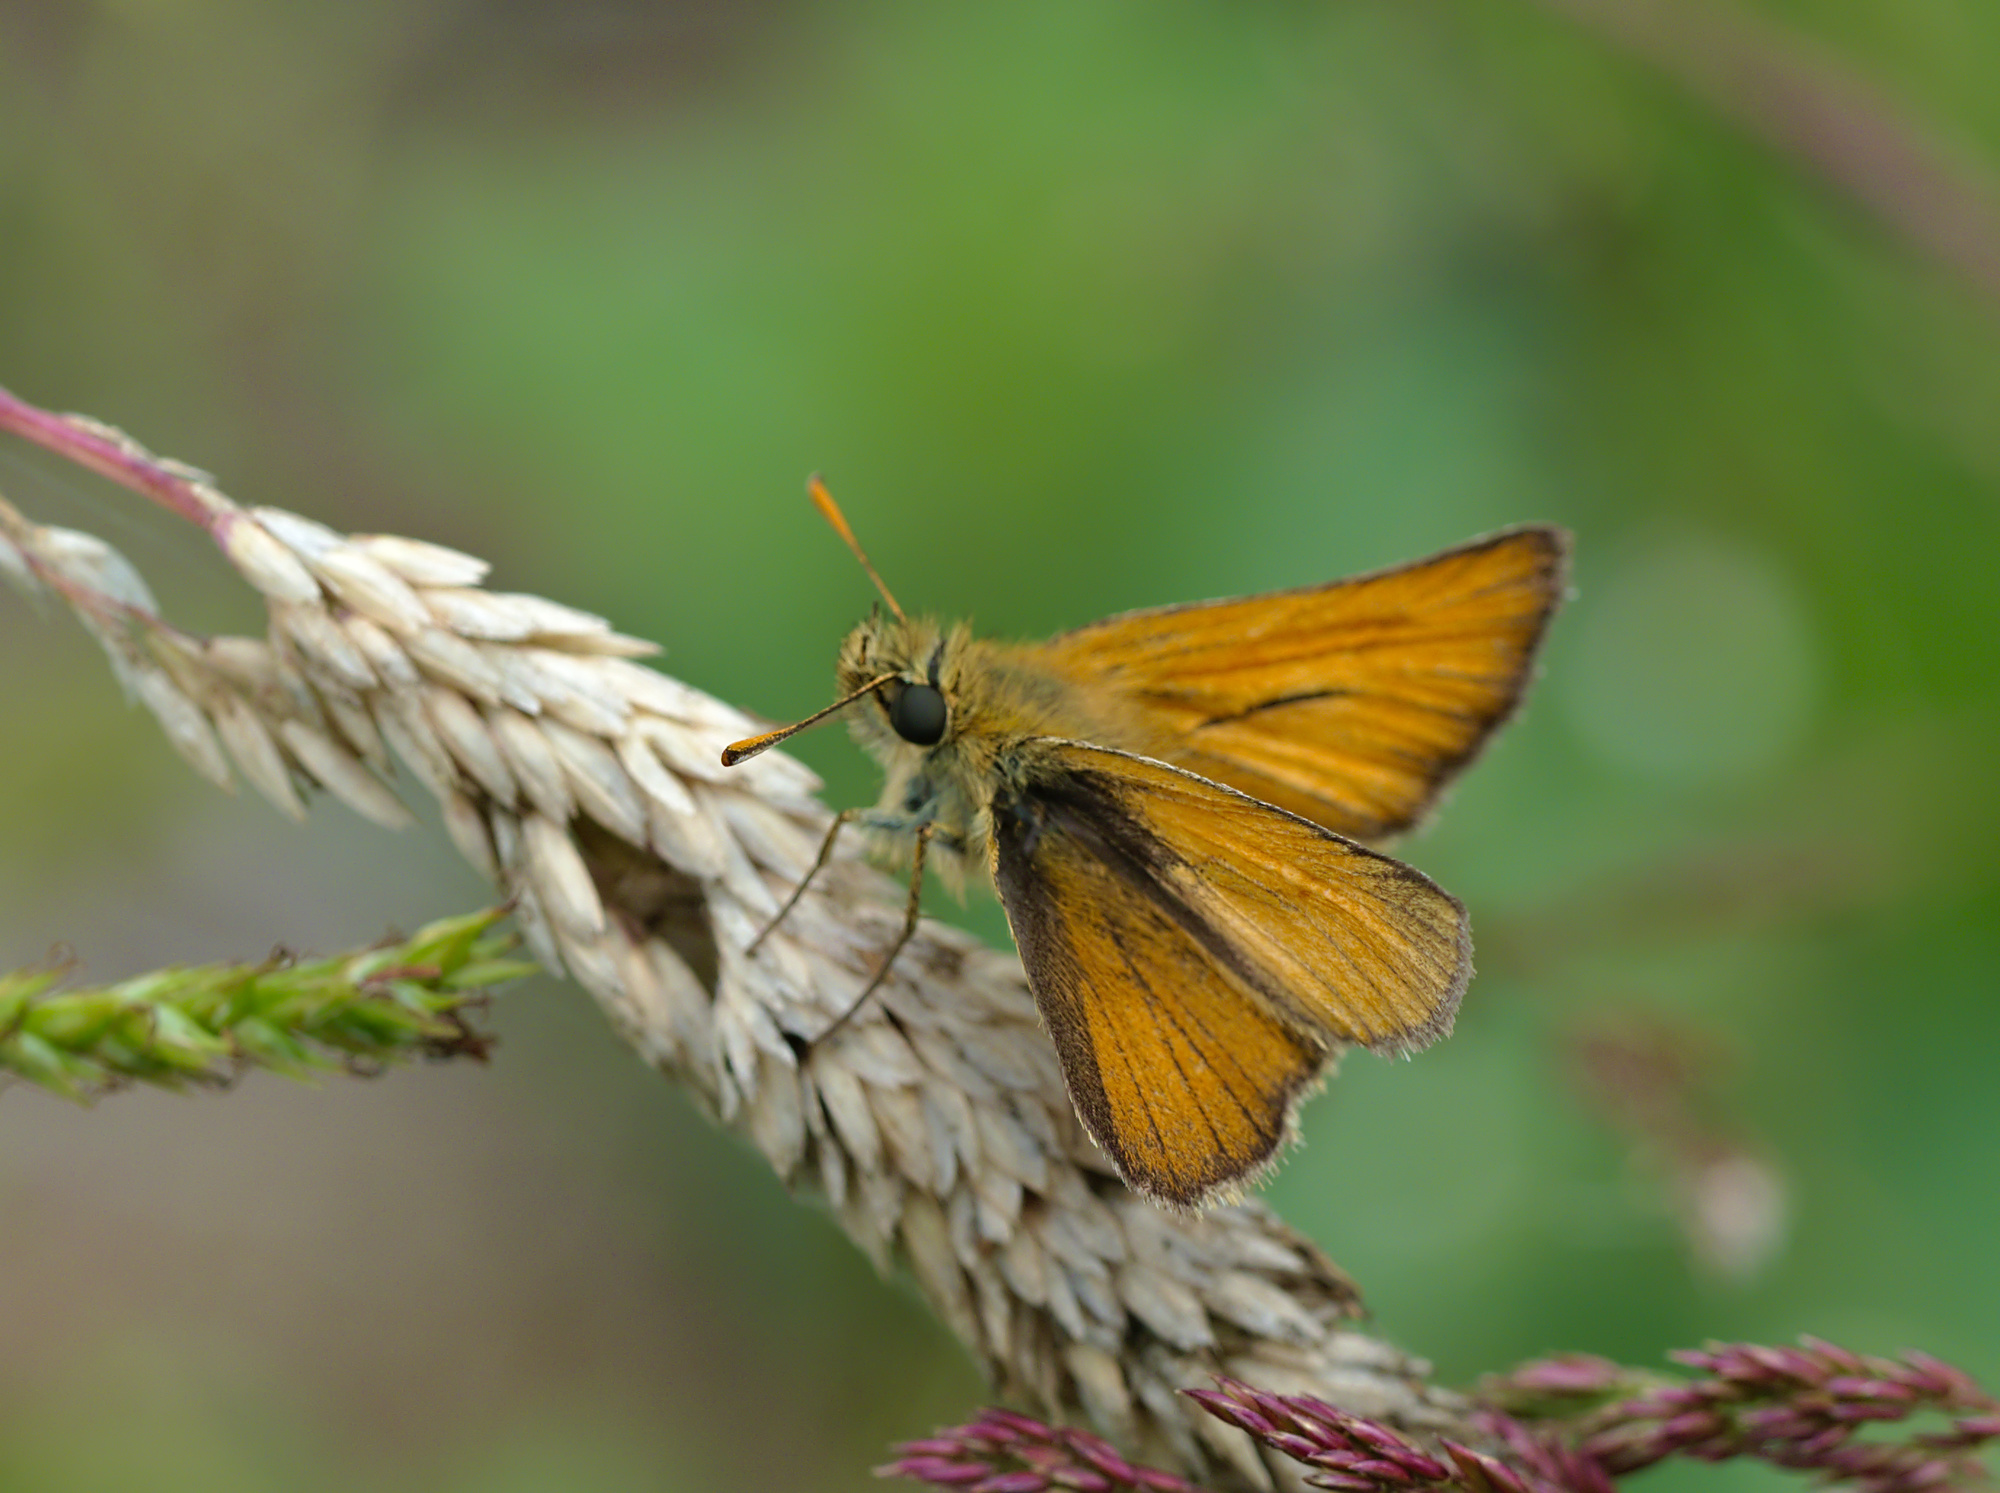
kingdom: Animalia
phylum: Arthropoda
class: Insecta
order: Lepidoptera
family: Hesperiidae
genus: Thymelicus
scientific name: Thymelicus sylvestris
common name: Small skipper
